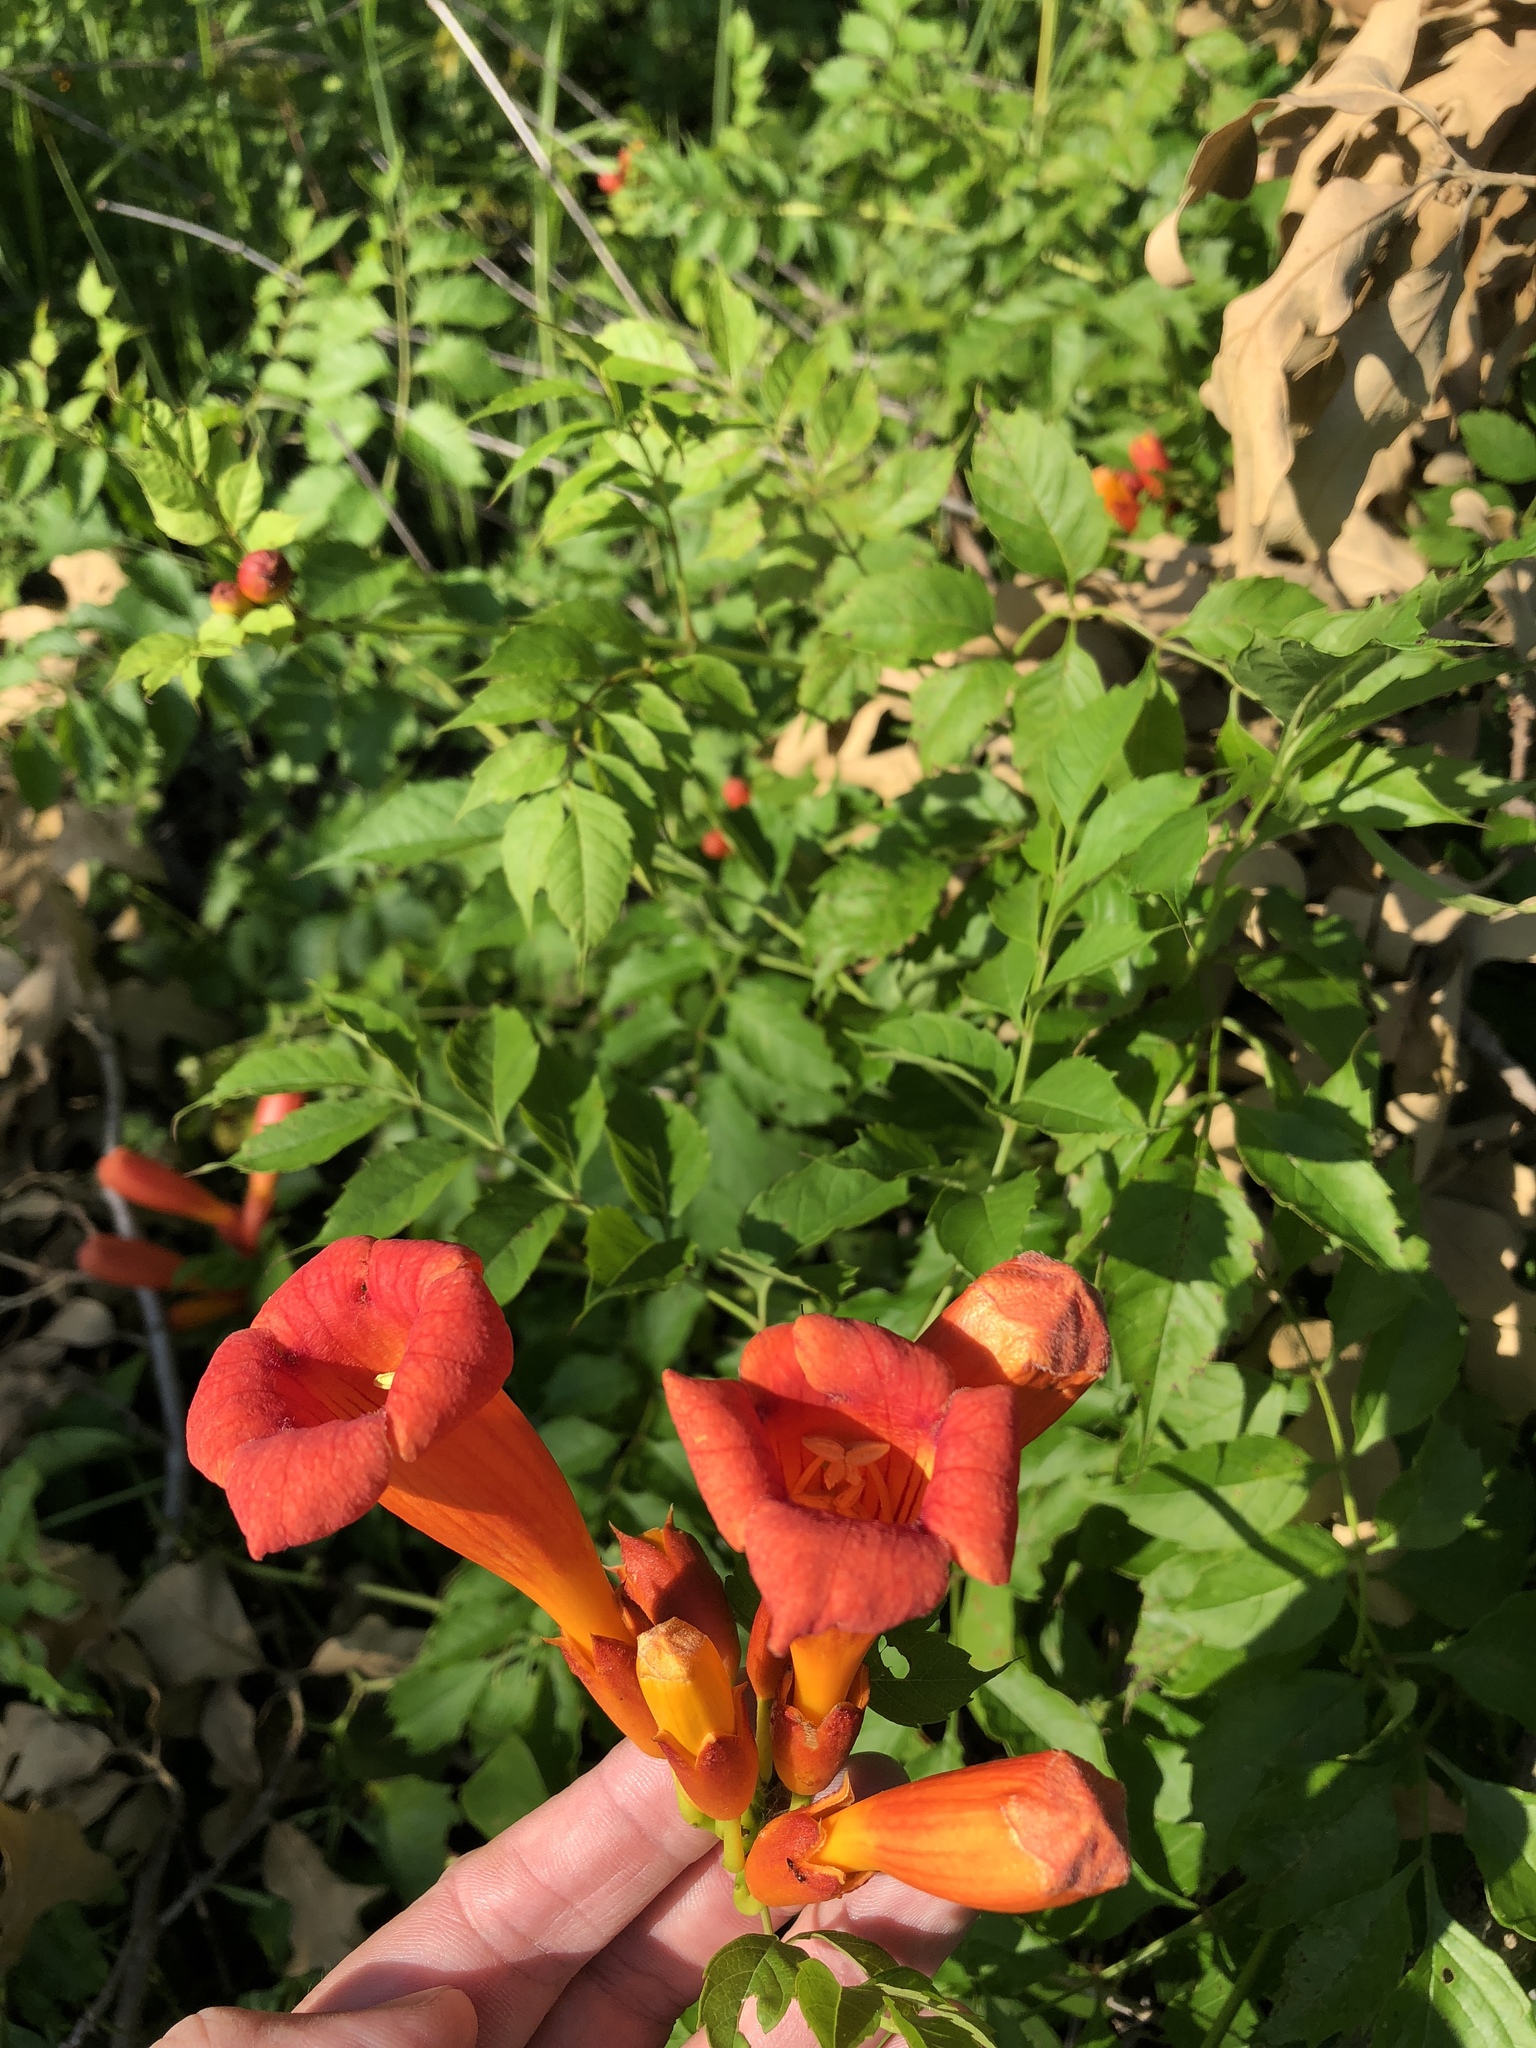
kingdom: Plantae
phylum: Tracheophyta
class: Magnoliopsida
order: Lamiales
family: Bignoniaceae
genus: Campsis
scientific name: Campsis radicans
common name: Trumpet-creeper
